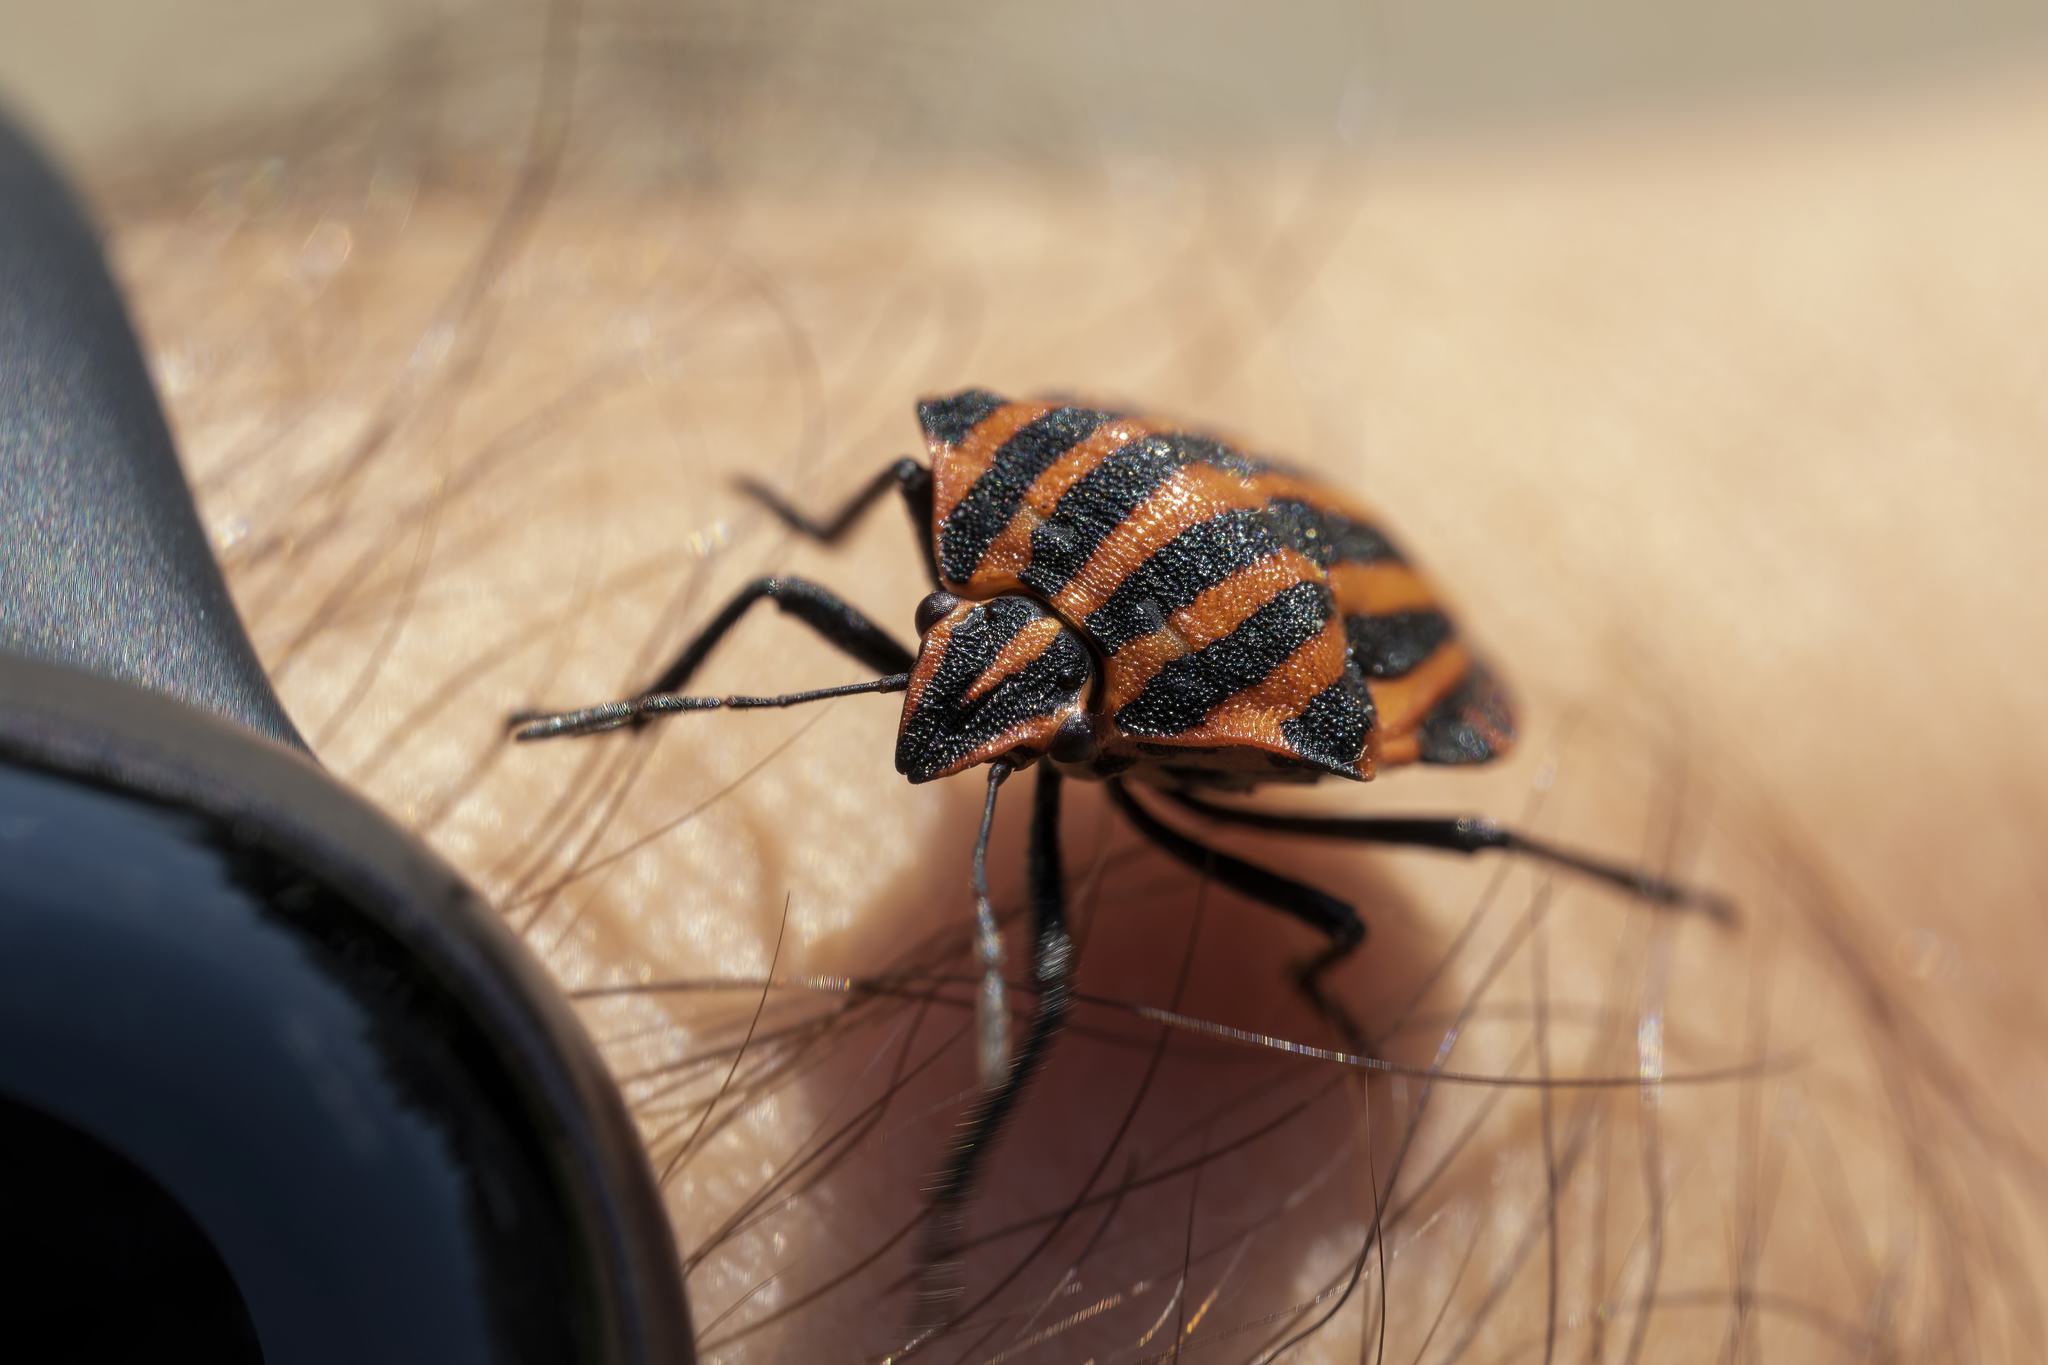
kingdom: Animalia
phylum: Arthropoda
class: Insecta
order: Hemiptera
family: Pentatomidae
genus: Graphosoma
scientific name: Graphosoma italicum
